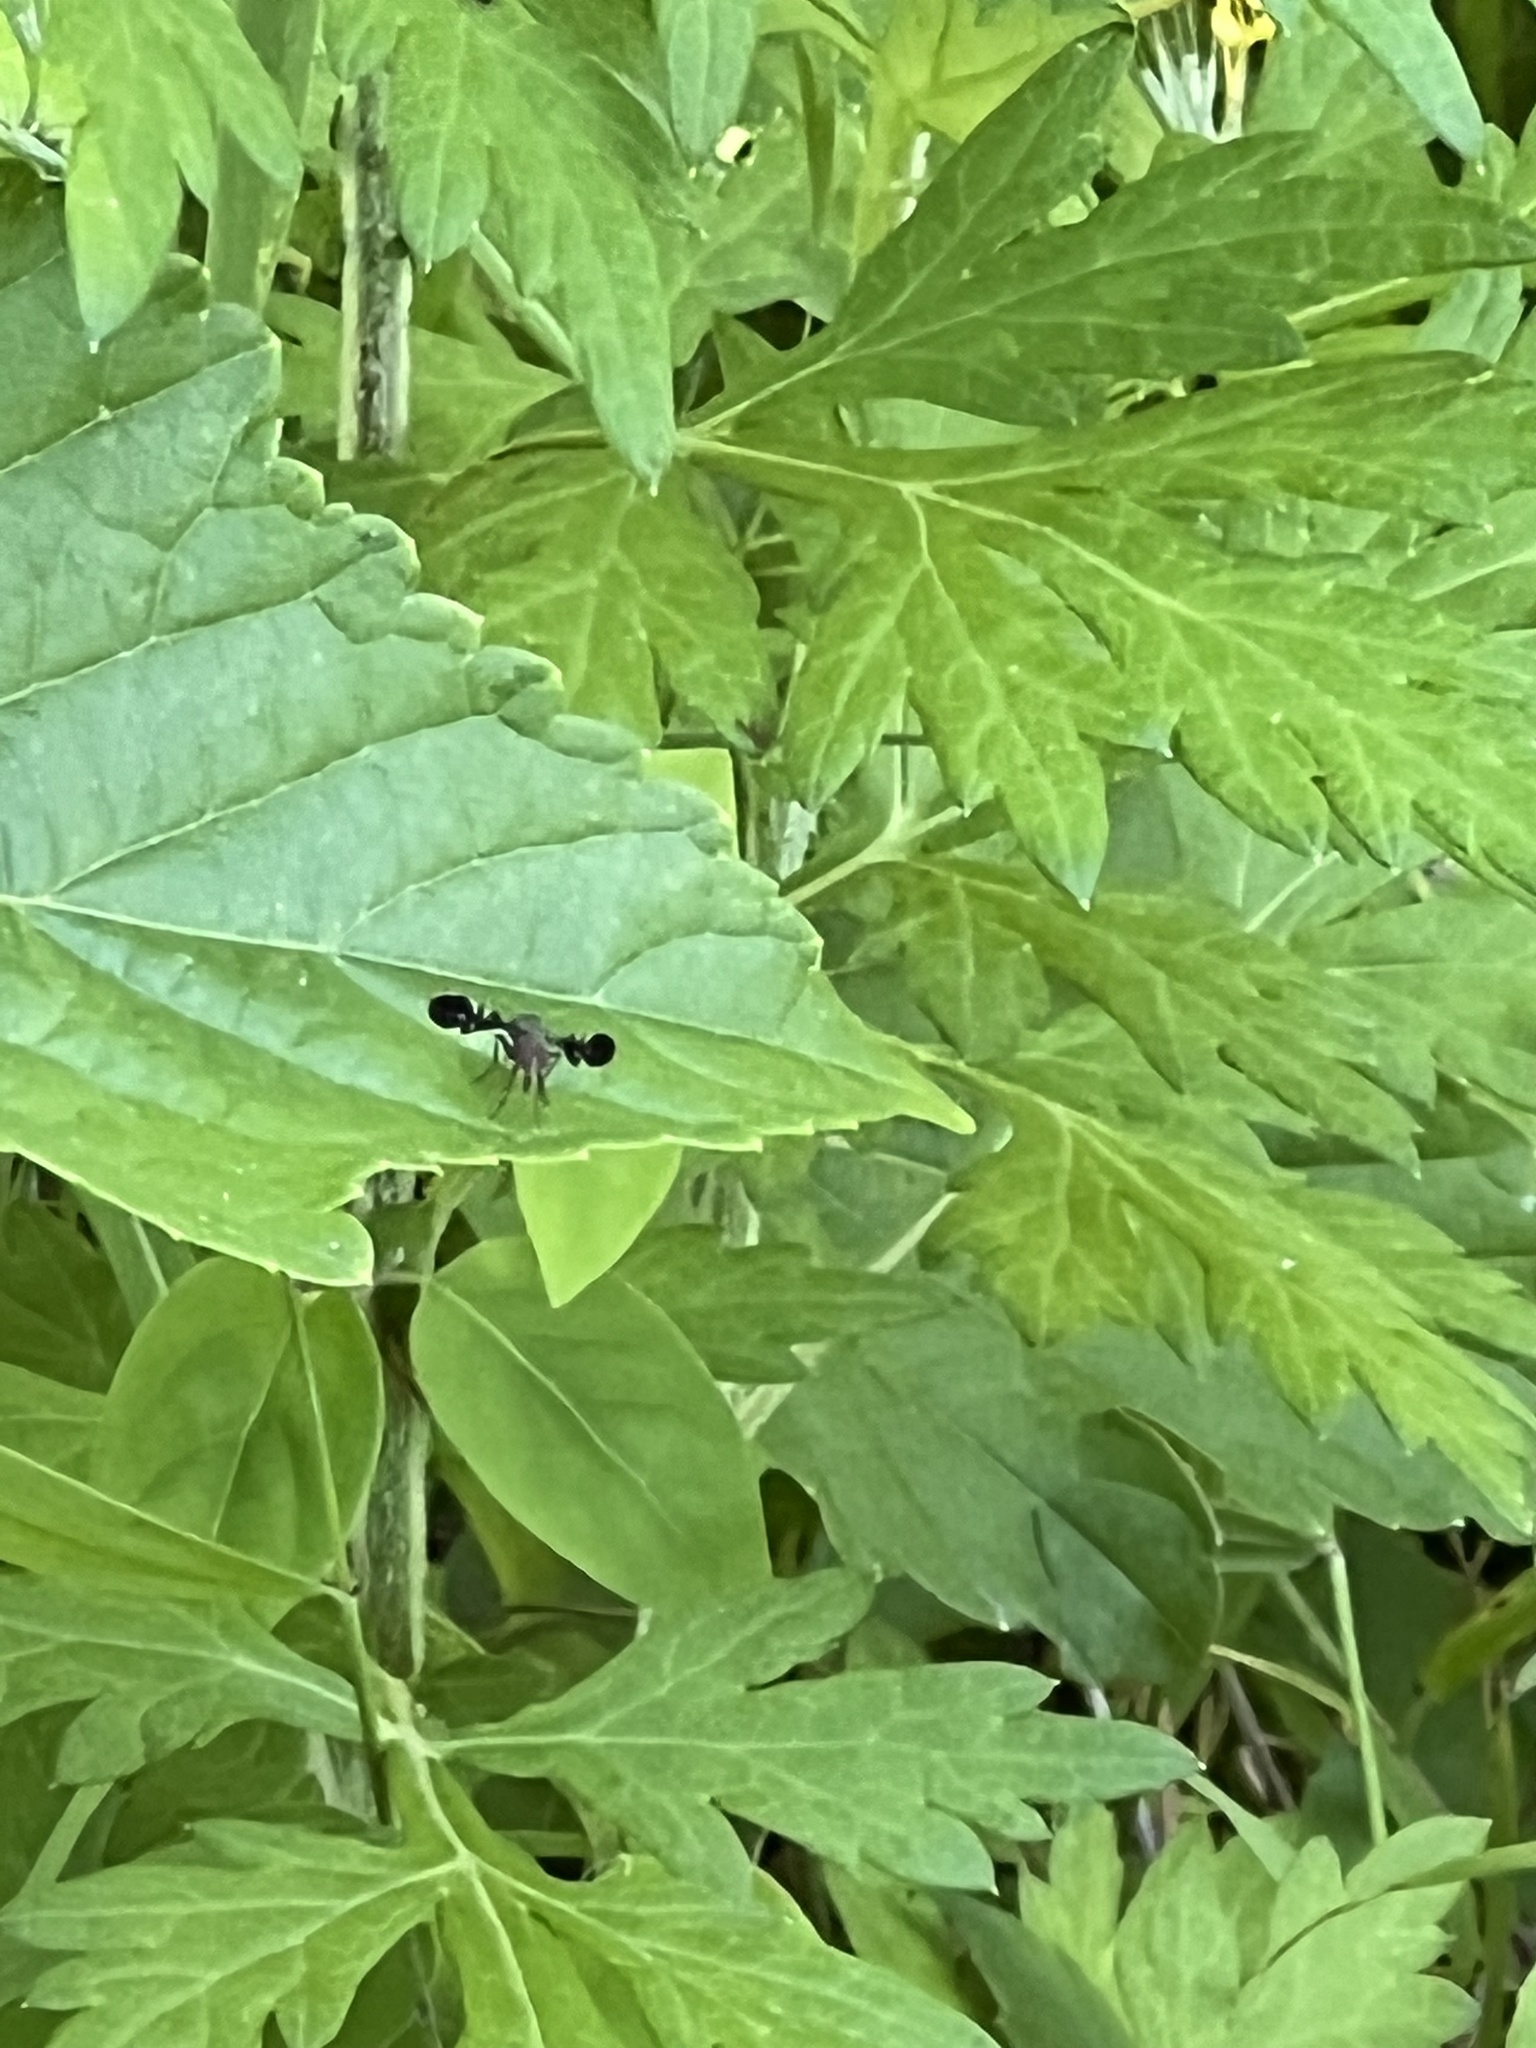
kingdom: Animalia
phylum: Arthropoda
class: Insecta
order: Diptera
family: Ulidiidae
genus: Delphinia
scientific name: Delphinia picta
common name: Common picture-winged fly
